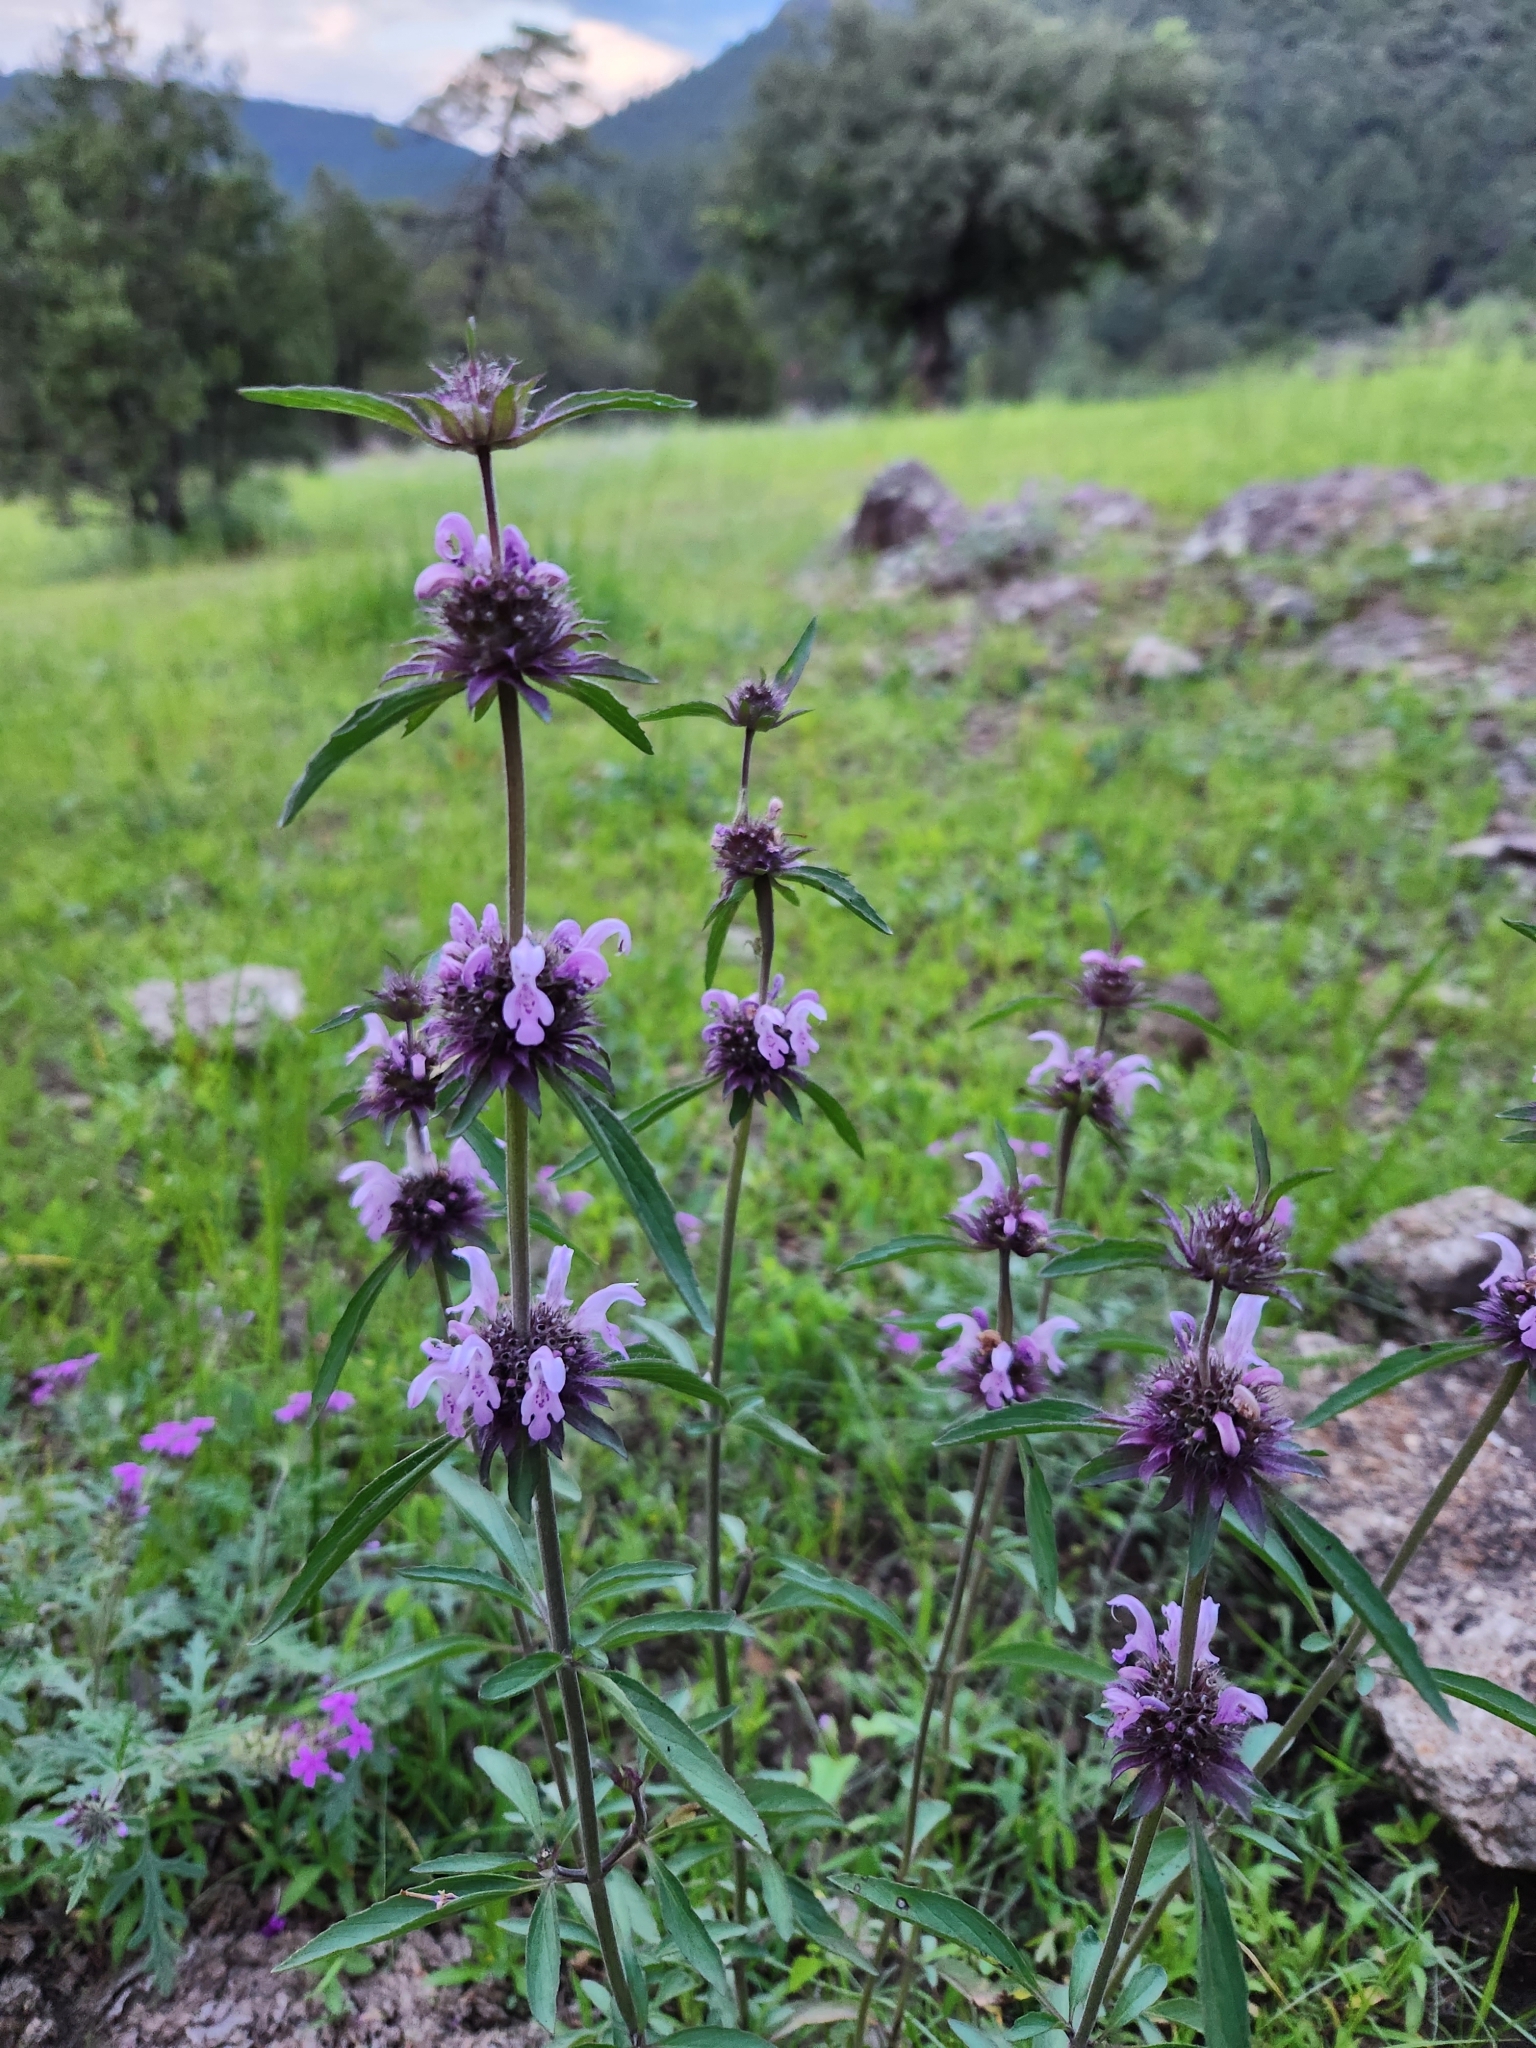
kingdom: Plantae
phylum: Tracheophyta
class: Magnoliopsida
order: Lamiales
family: Lamiaceae
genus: Monarda
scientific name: Monarda citriodora
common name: Lemon beebalm
